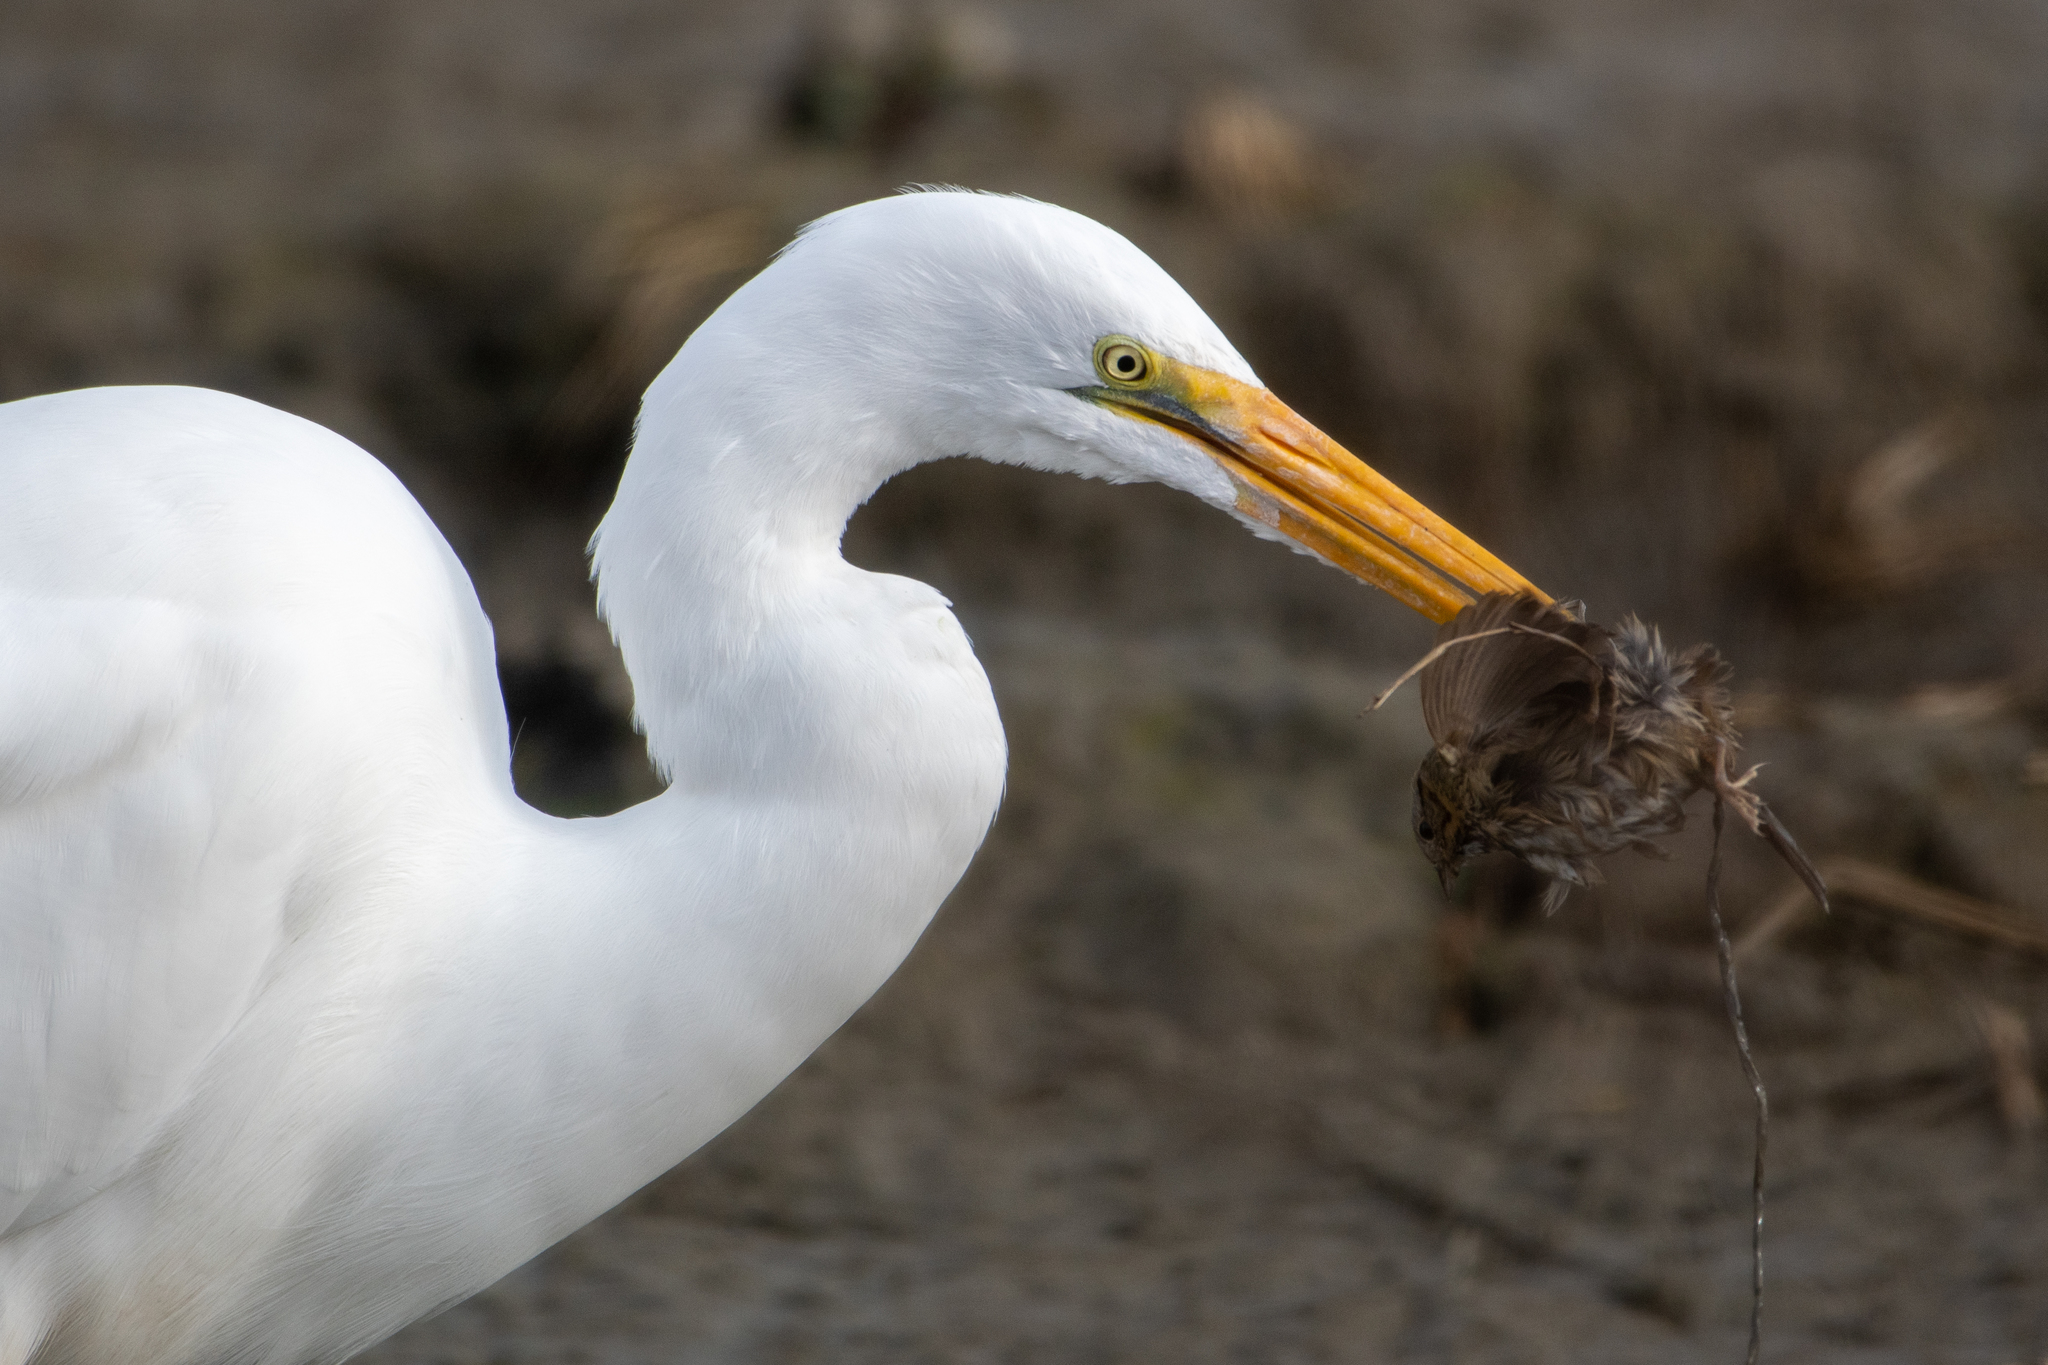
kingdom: Animalia
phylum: Chordata
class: Aves
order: Pelecaniformes
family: Ardeidae
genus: Ardea
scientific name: Ardea alba
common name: Great egret
